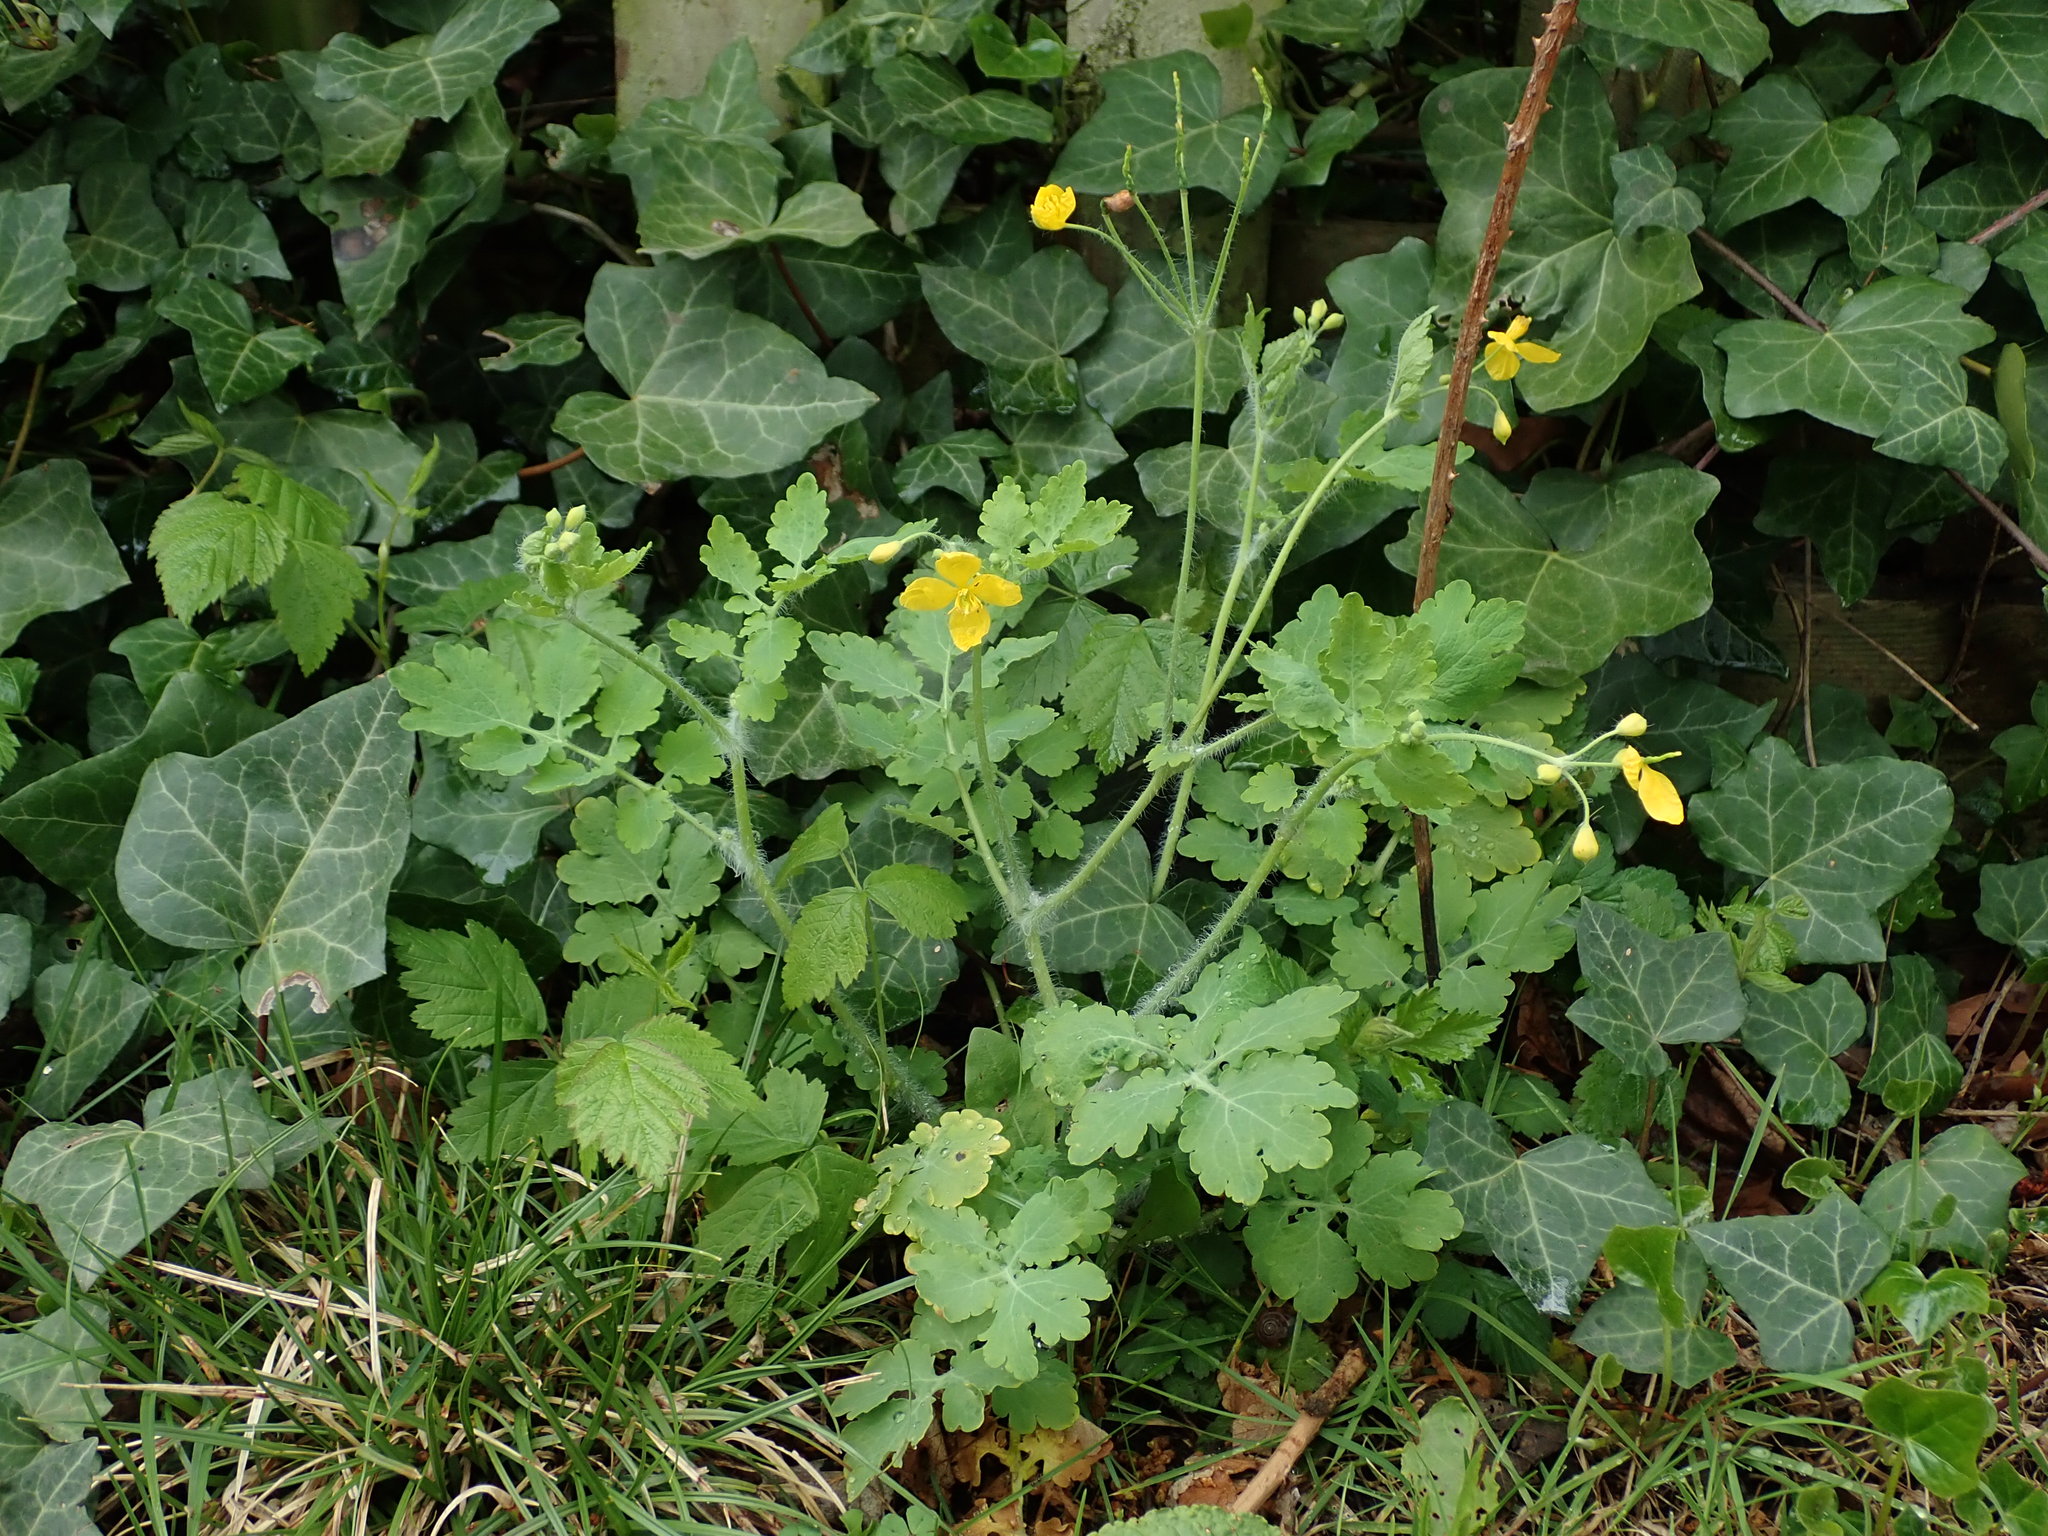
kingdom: Plantae
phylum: Tracheophyta
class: Magnoliopsida
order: Ranunculales
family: Papaveraceae
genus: Chelidonium
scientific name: Chelidonium majus
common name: Greater celandine
